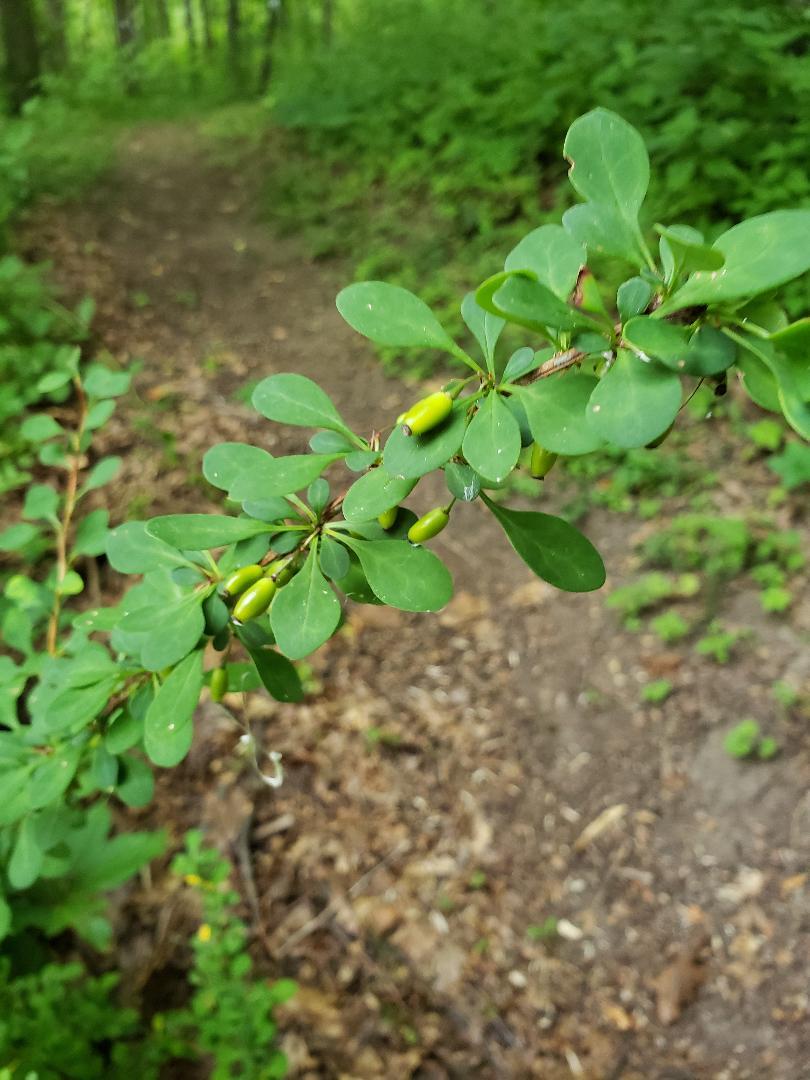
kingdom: Plantae
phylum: Tracheophyta
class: Magnoliopsida
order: Ranunculales
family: Berberidaceae
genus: Berberis
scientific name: Berberis thunbergii
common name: Japanese barberry
